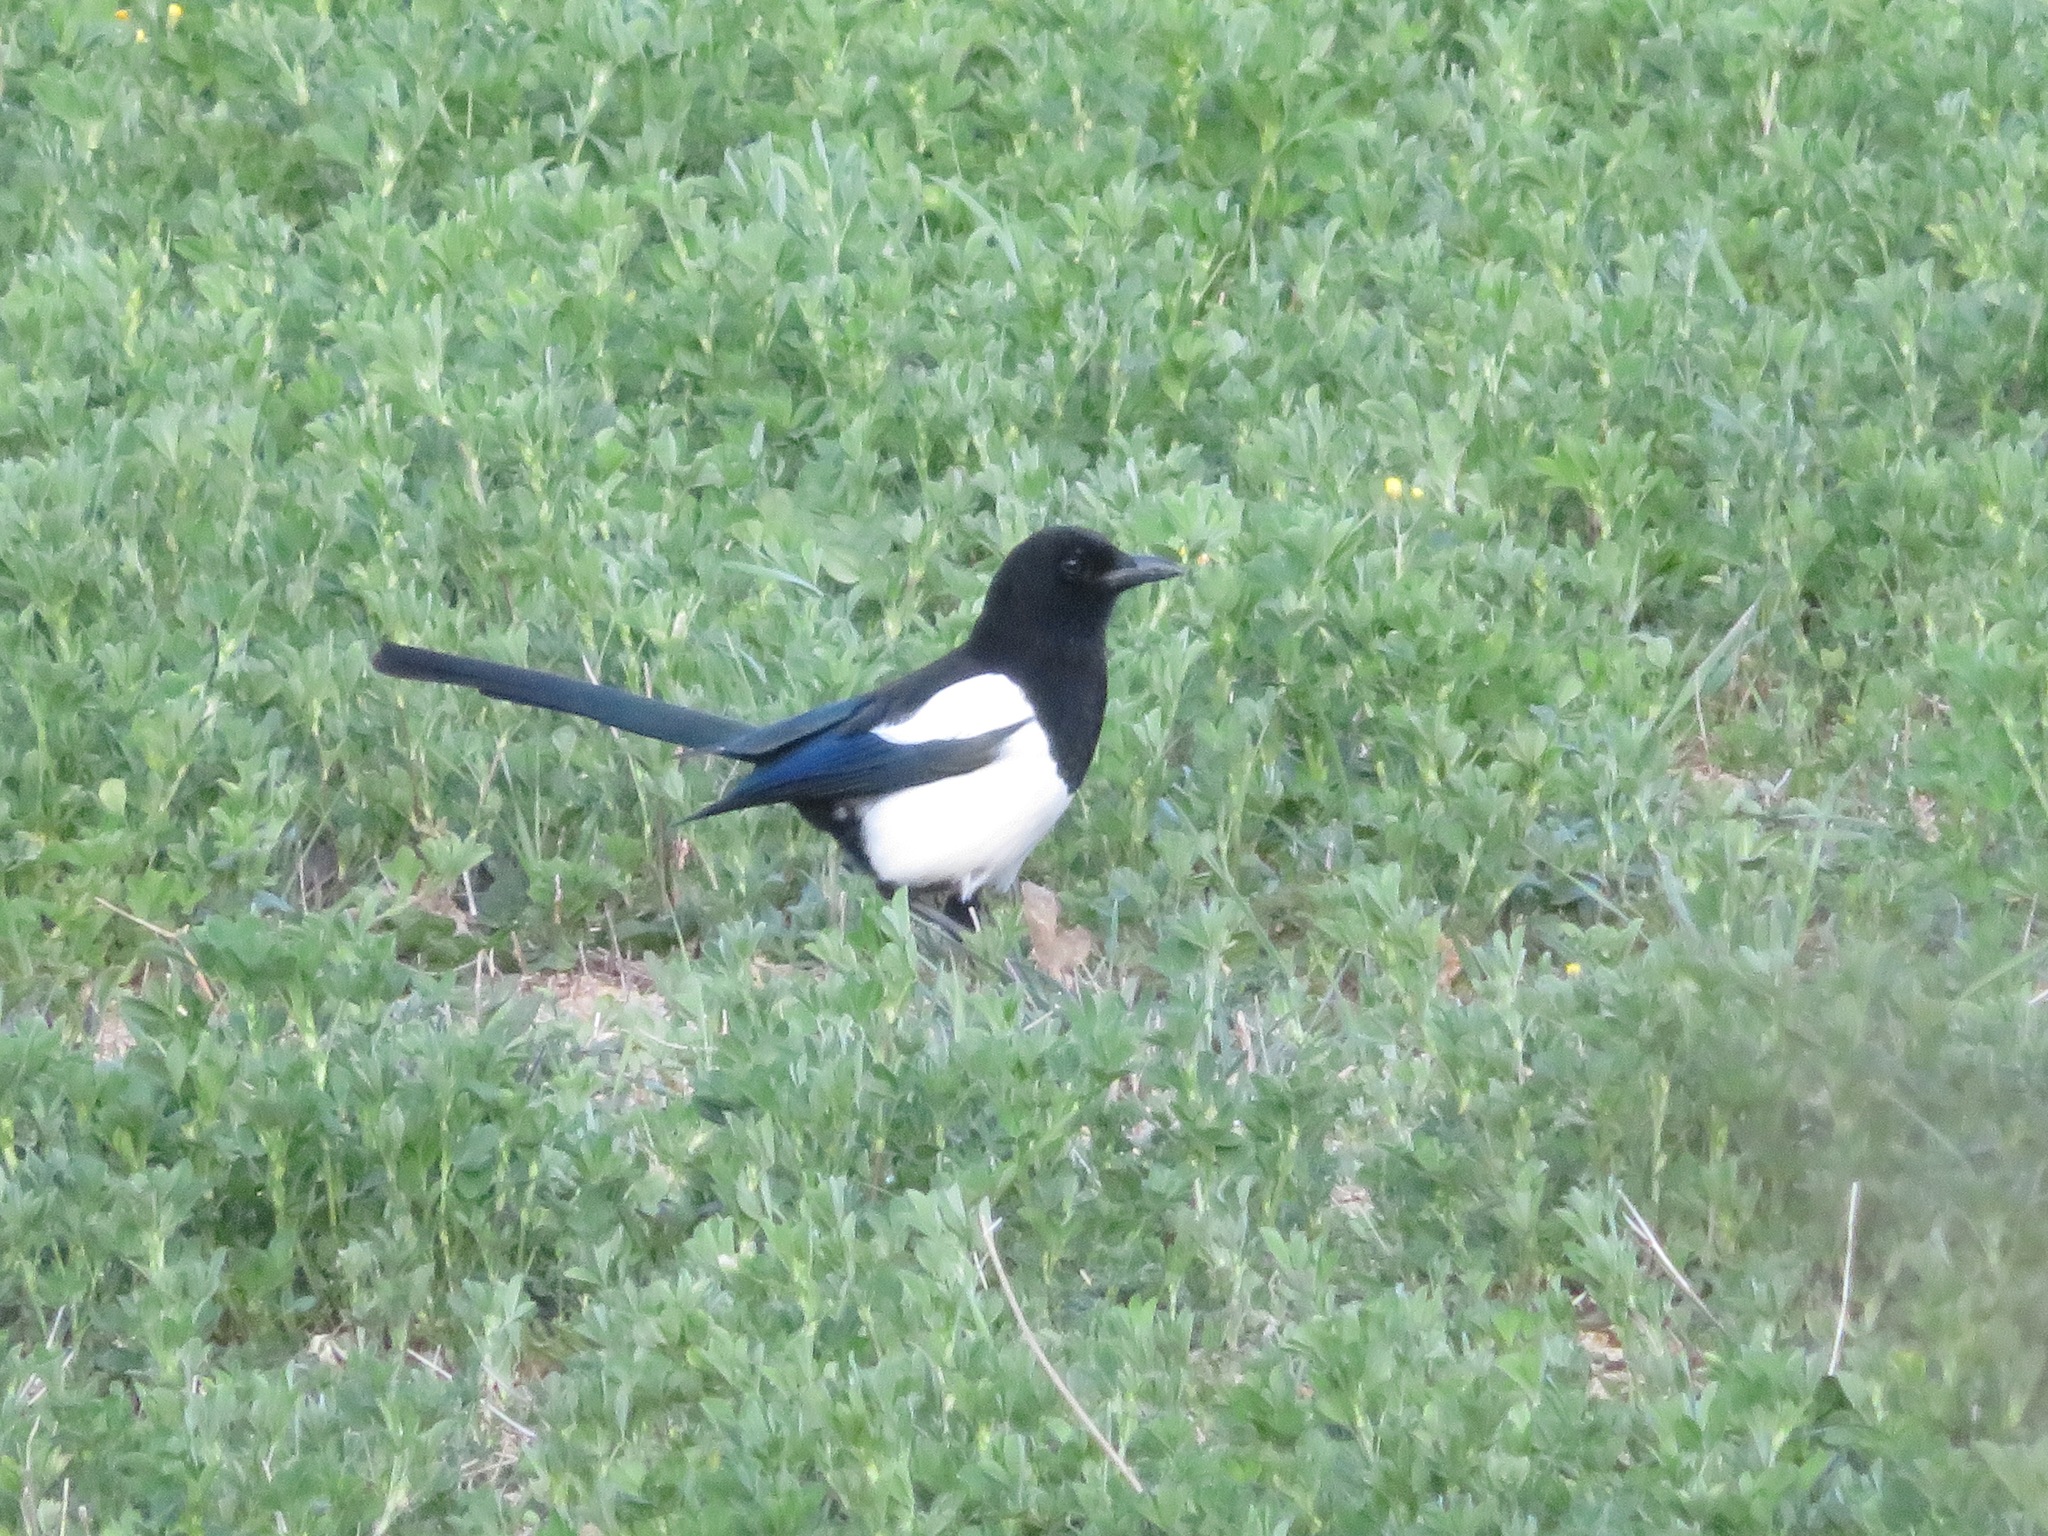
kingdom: Animalia
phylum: Chordata
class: Aves
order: Passeriformes
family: Corvidae
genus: Pica
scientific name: Pica pica
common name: Eurasian magpie
